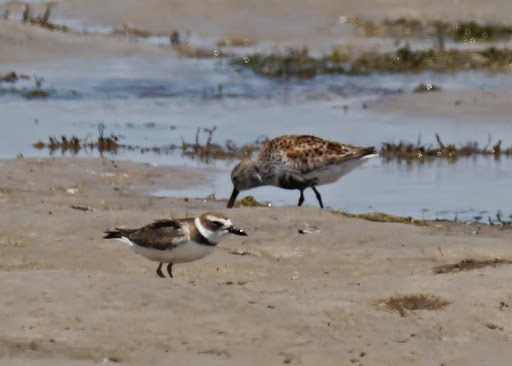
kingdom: Animalia
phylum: Chordata
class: Aves
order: Charadriiformes
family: Charadriidae
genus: Anarhynchus
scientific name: Anarhynchus
